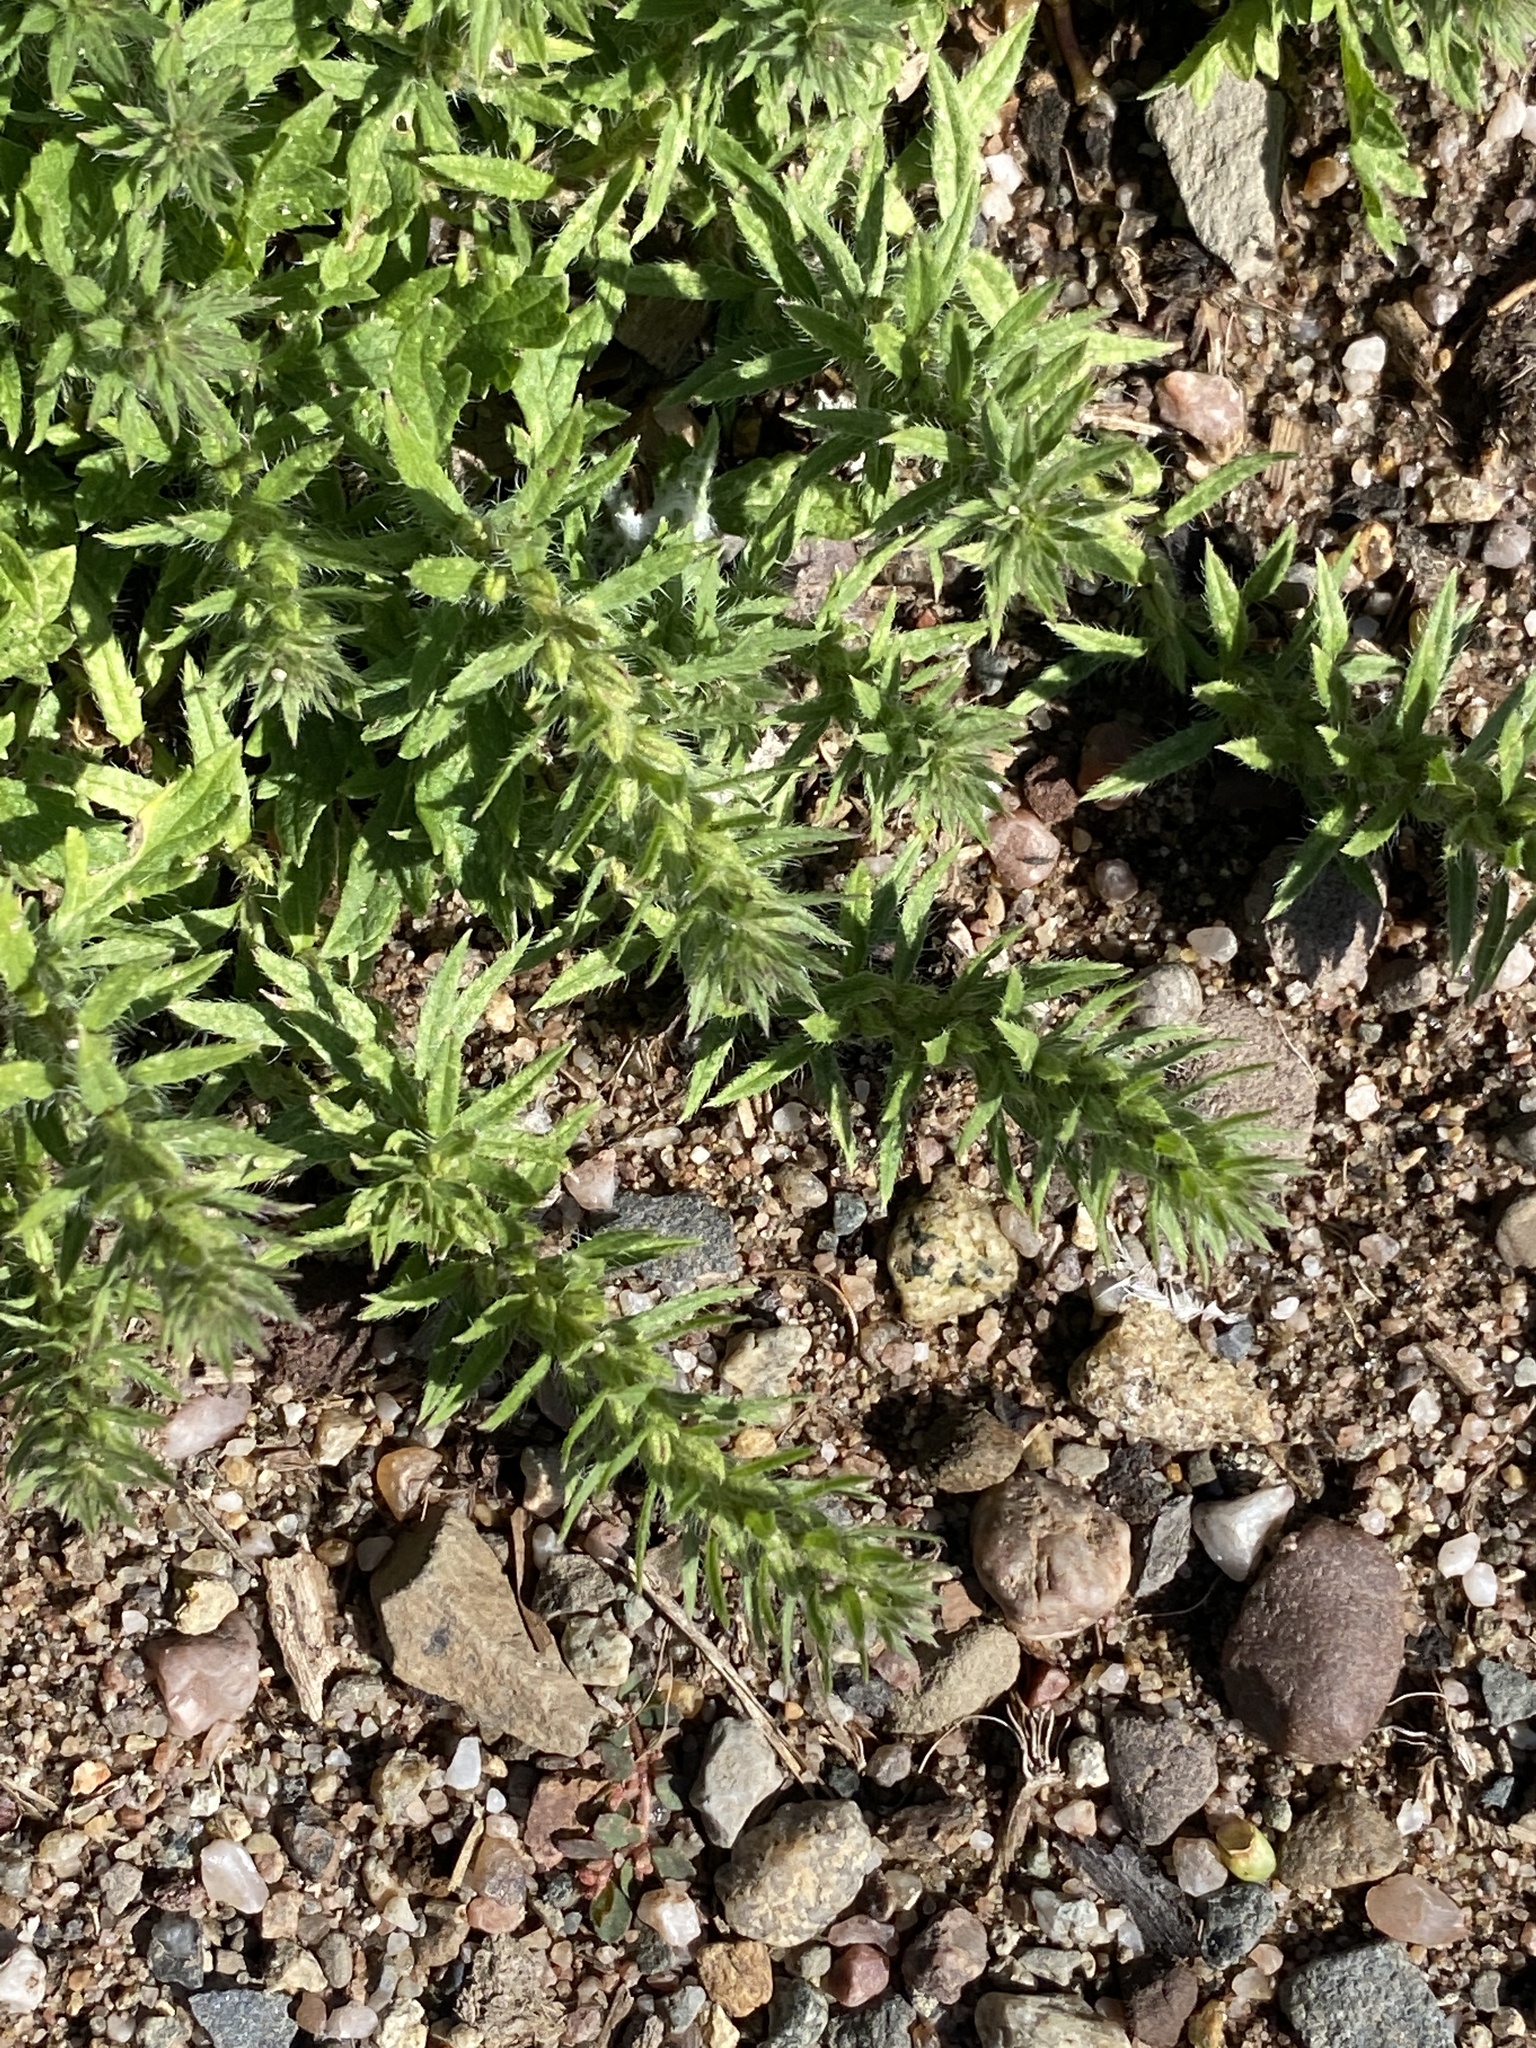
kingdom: Plantae
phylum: Tracheophyta
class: Magnoliopsida
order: Lamiales
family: Verbenaceae
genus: Verbena
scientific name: Verbena bracteata
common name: Bracted vervain
